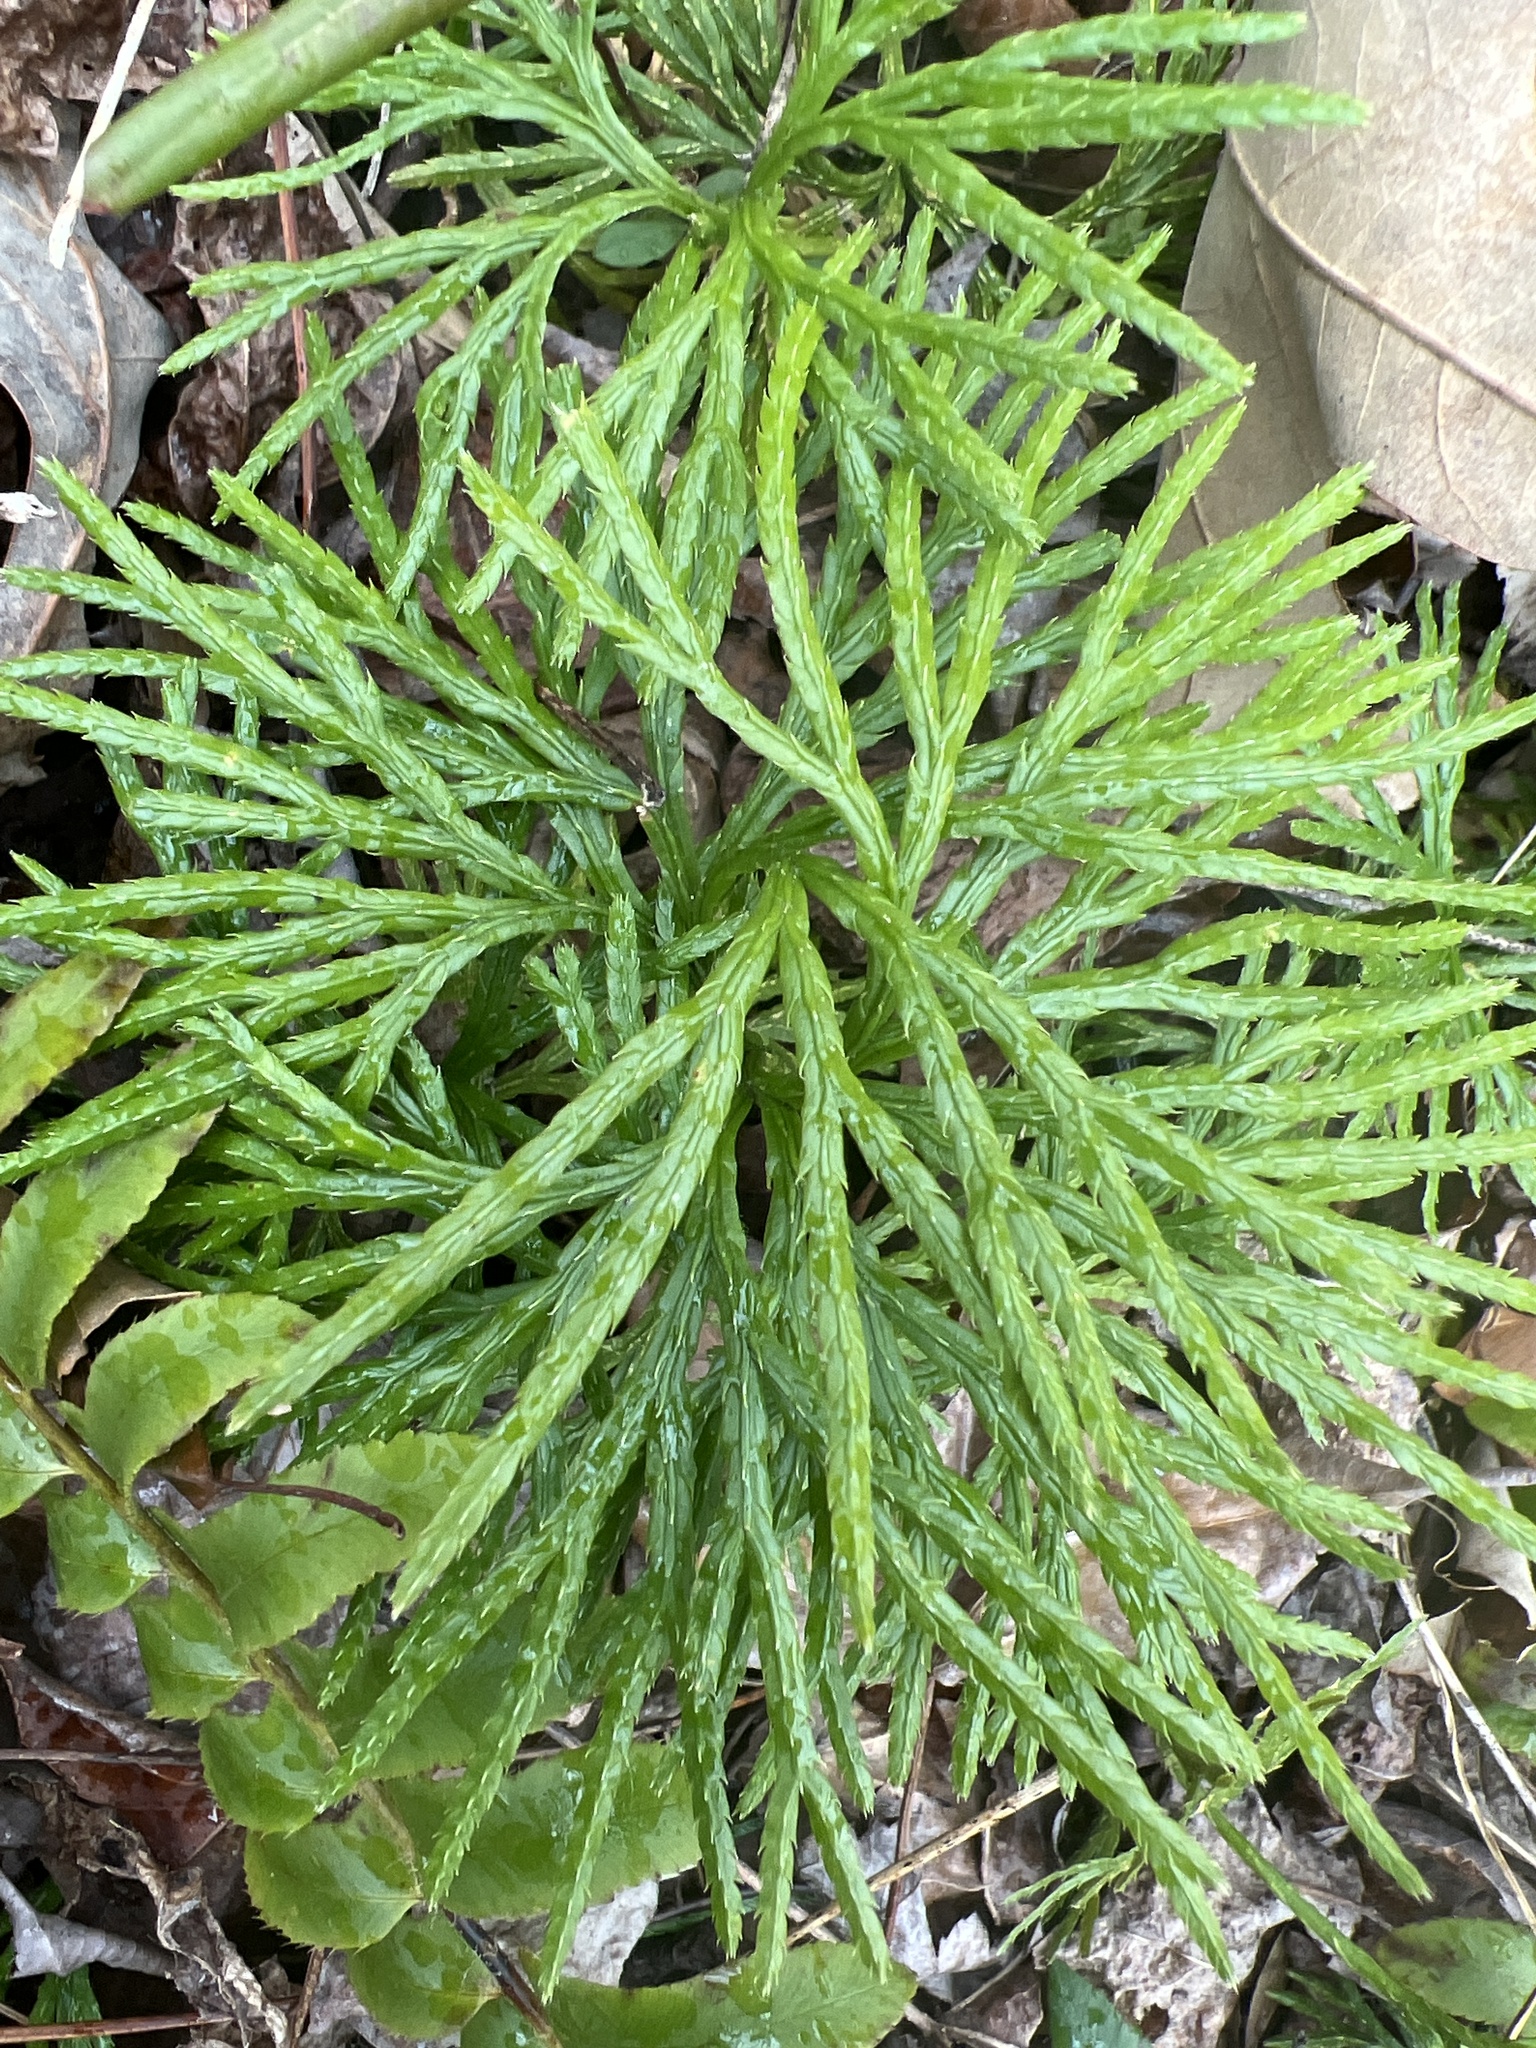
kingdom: Plantae
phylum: Tracheophyta
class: Lycopodiopsida
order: Lycopodiales
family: Lycopodiaceae
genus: Diphasiastrum
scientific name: Diphasiastrum digitatum
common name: Southern running-pine
